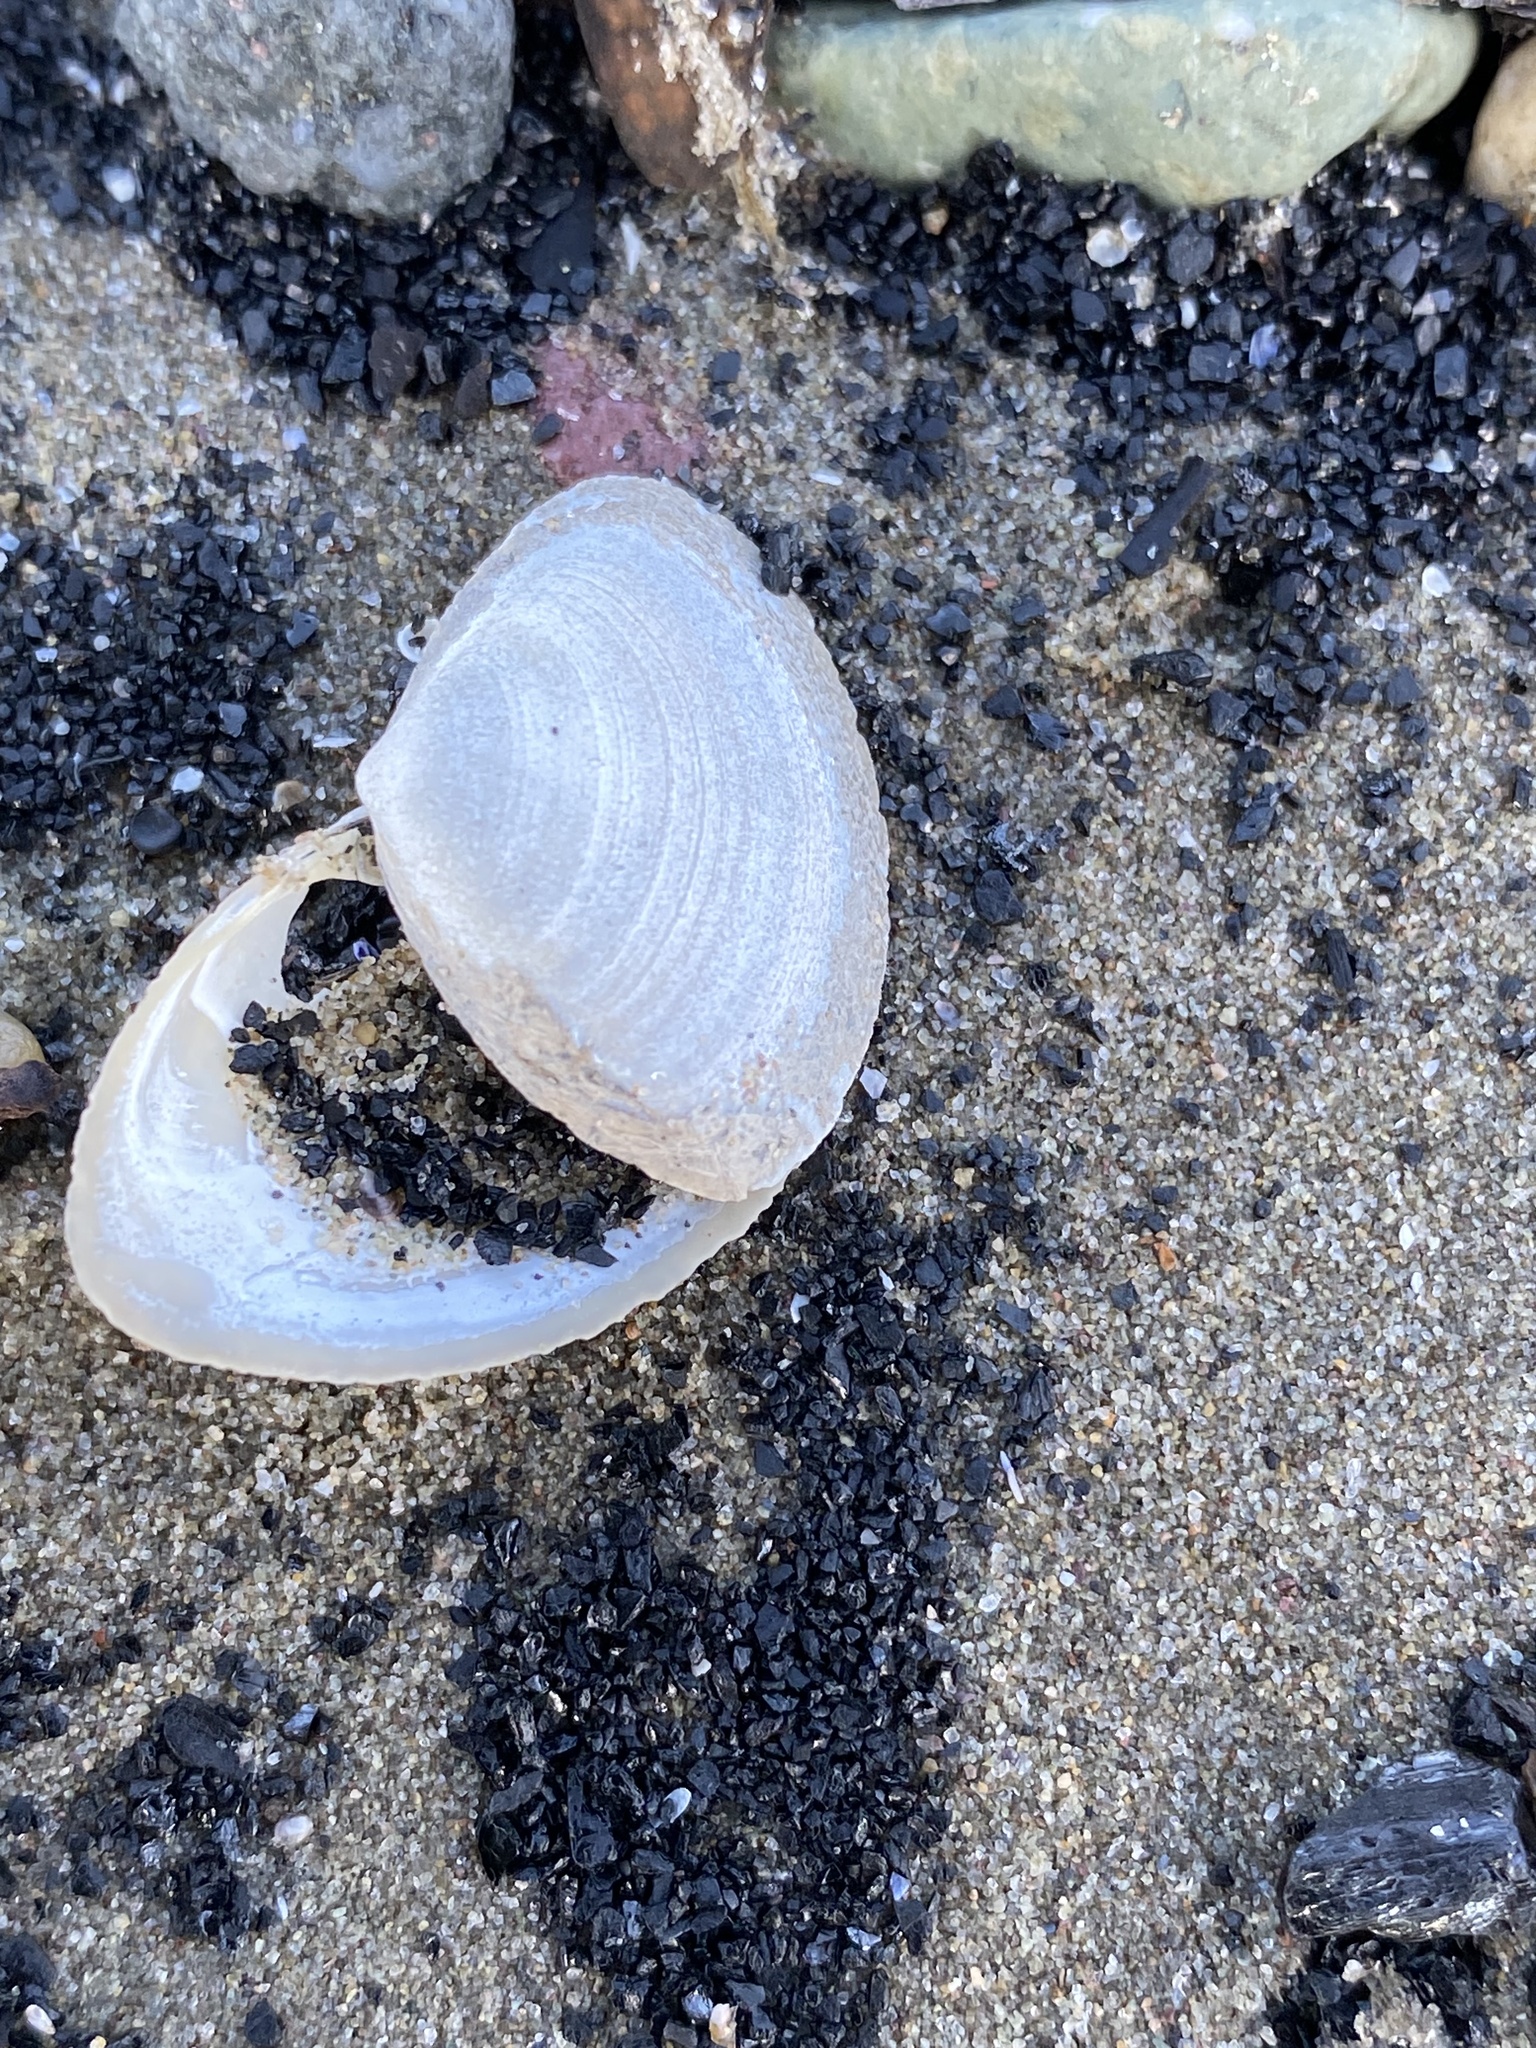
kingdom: Animalia
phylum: Mollusca
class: Bivalvia
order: Venerida
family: Mactridae
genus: Spisula
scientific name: Spisula solidissima
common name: Atlantic surf clam
